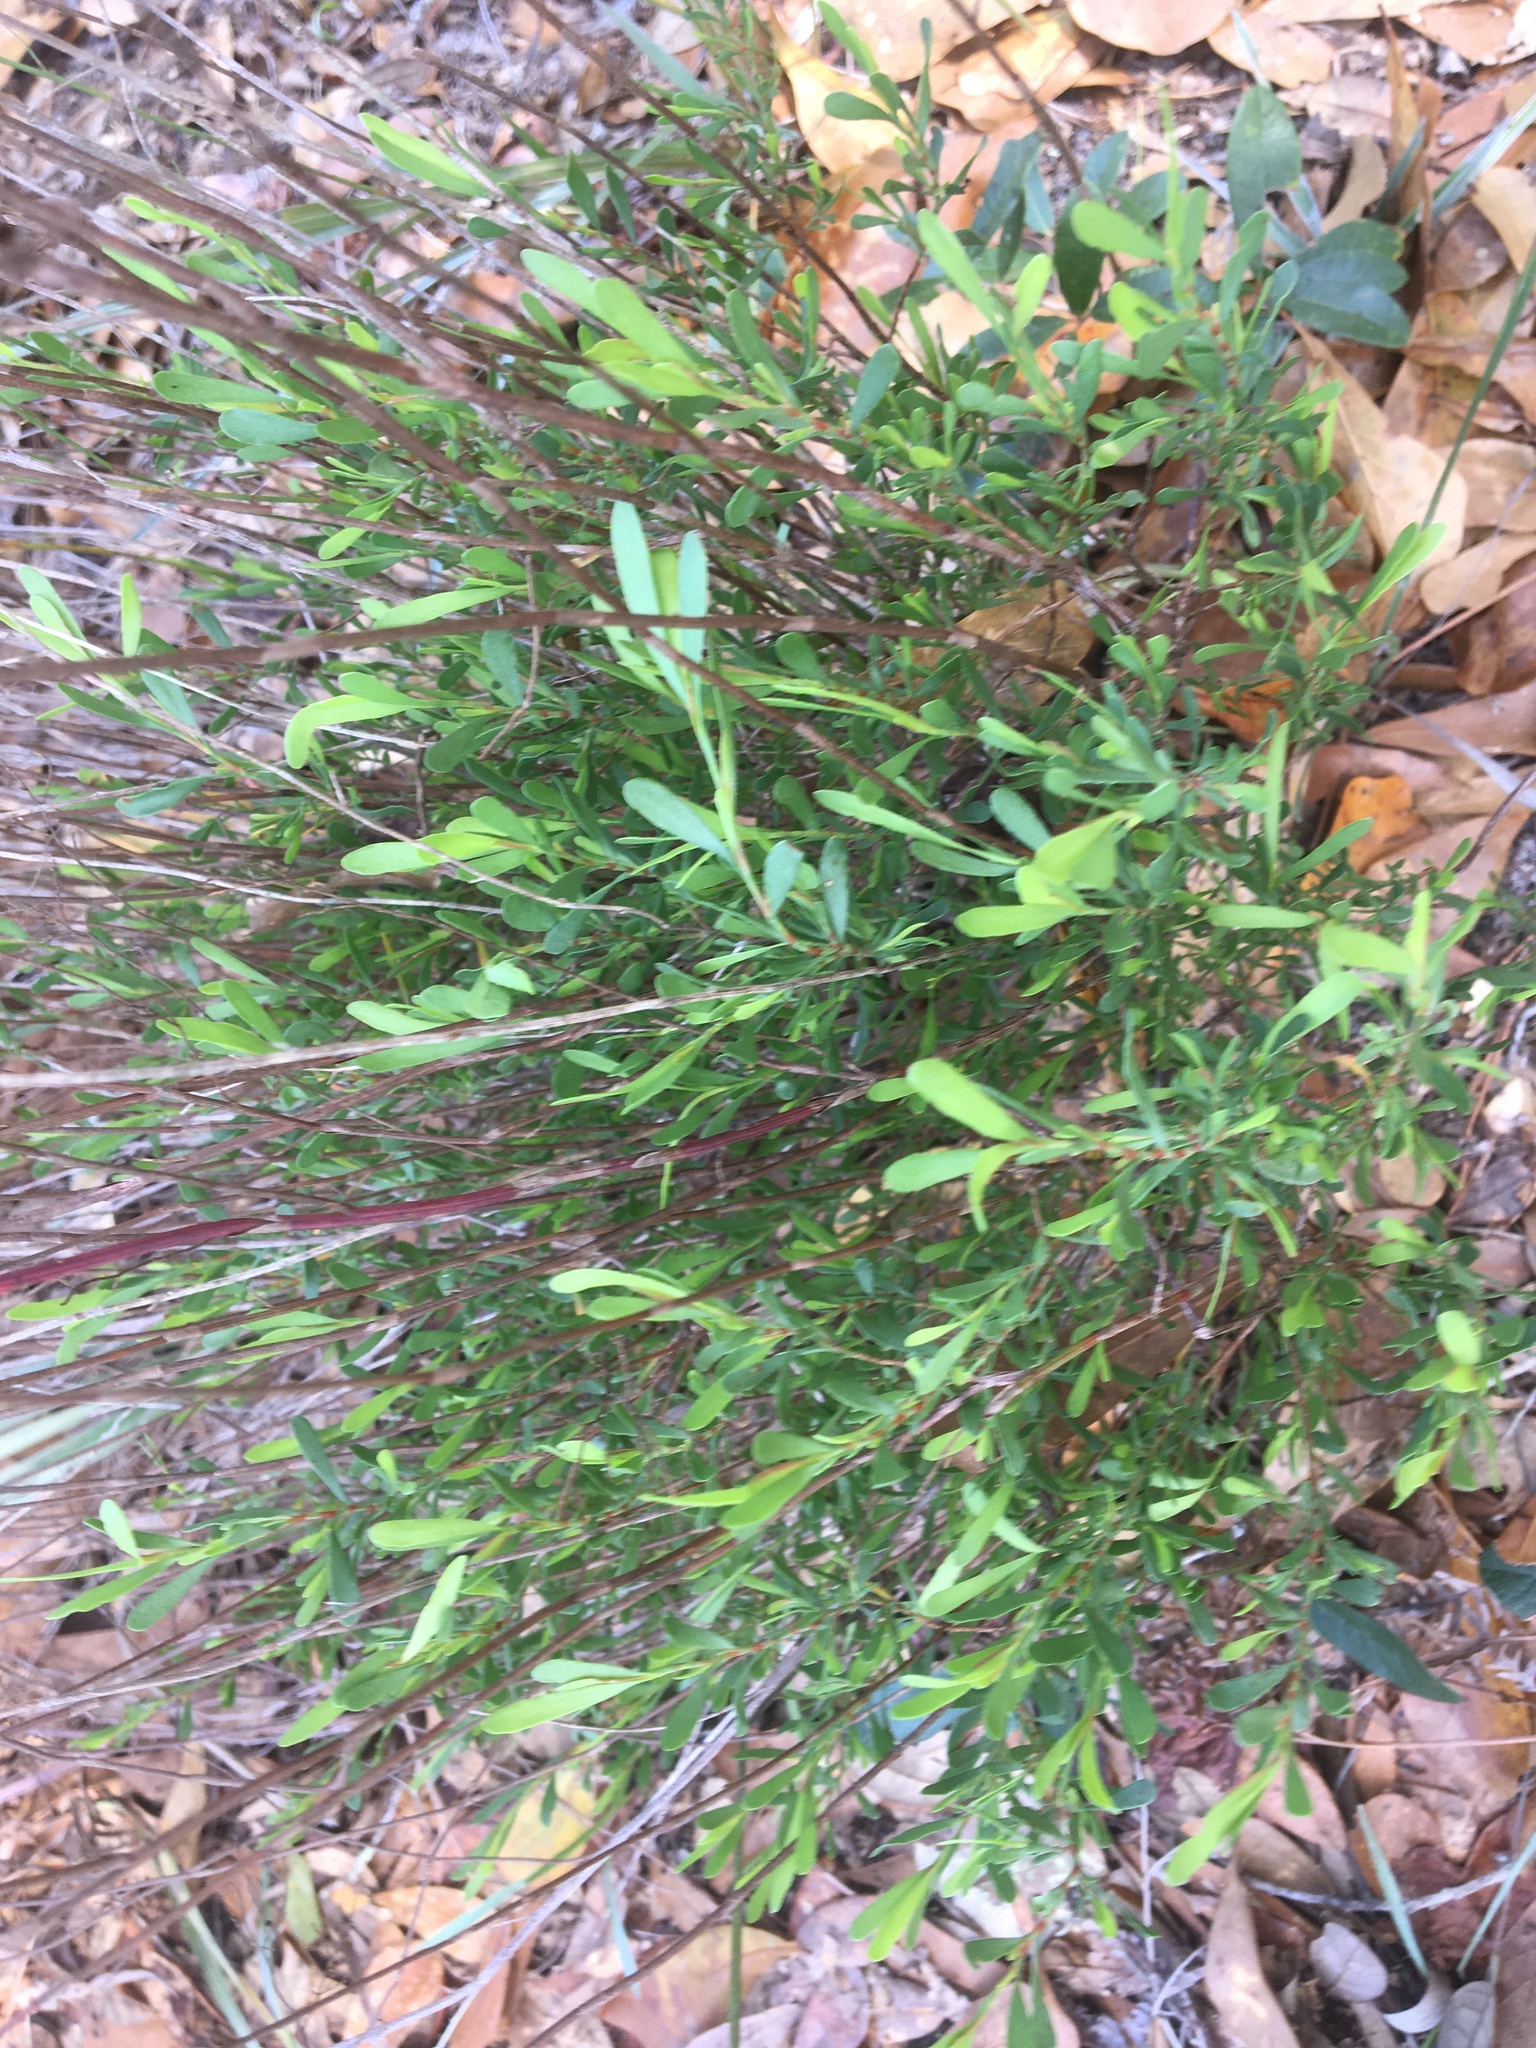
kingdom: Plantae
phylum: Tracheophyta
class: Magnoliopsida
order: Caryophyllales
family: Polygonaceae
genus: Polygonella
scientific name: Polygonella polygama
